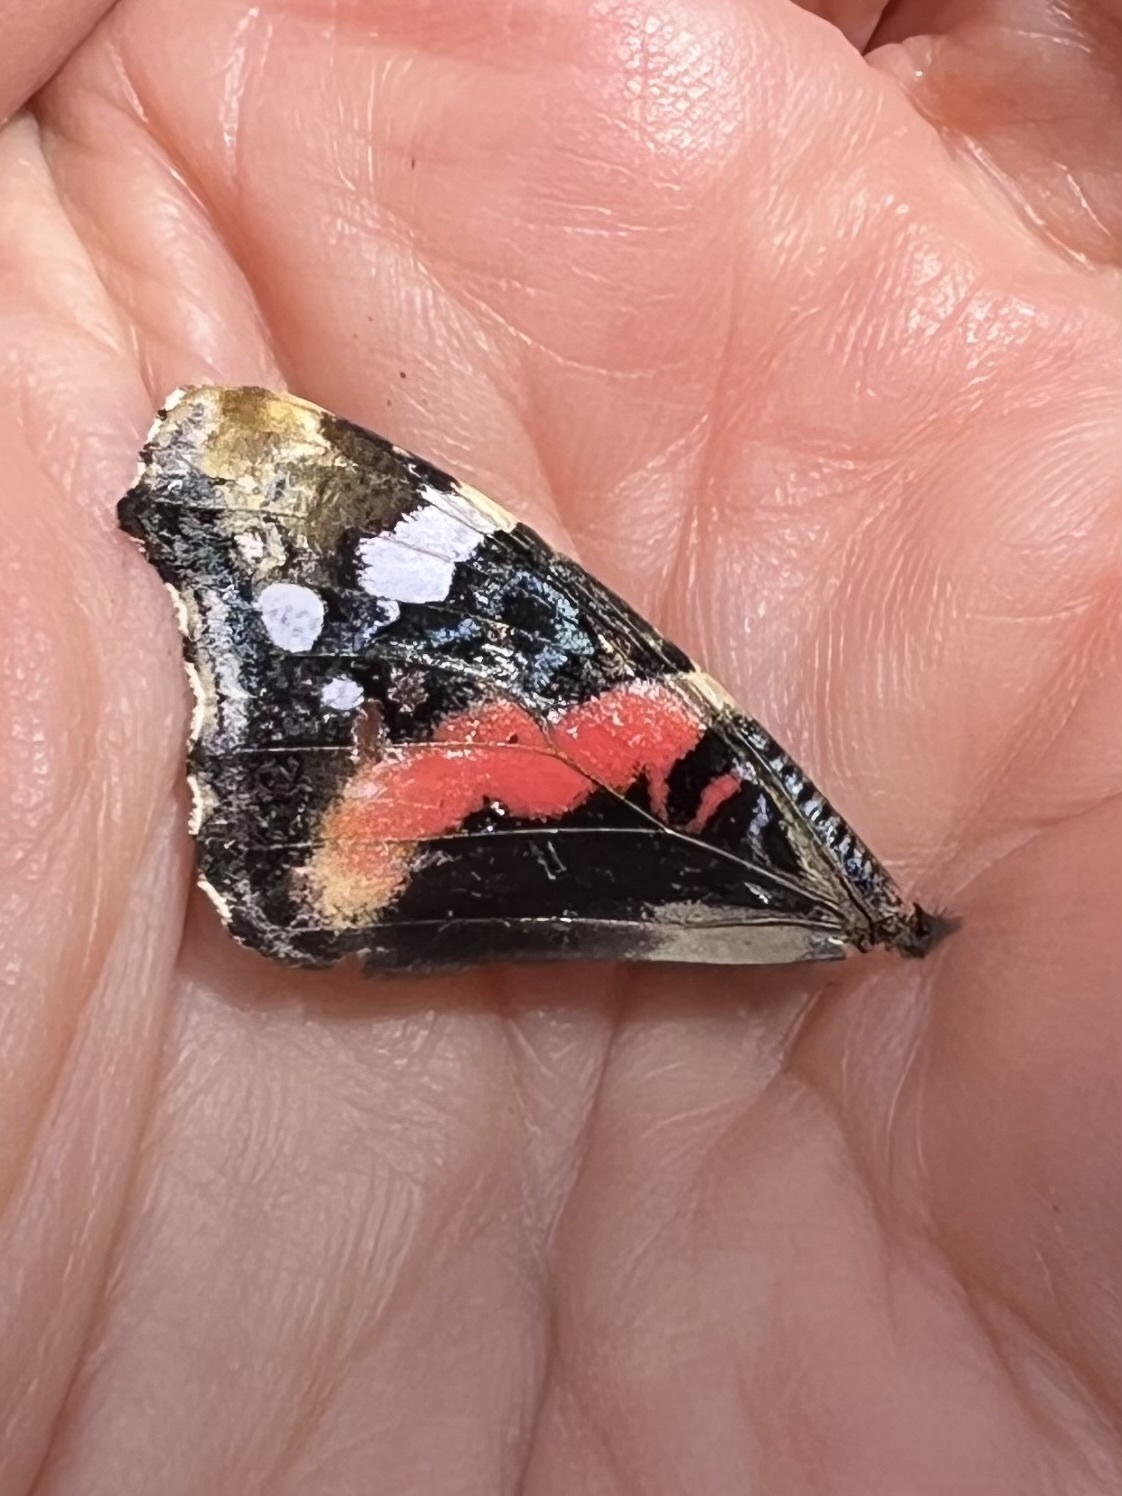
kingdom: Animalia
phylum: Arthropoda
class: Insecta
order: Lepidoptera
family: Nymphalidae
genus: Vanessa
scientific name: Vanessa atalanta
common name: Red admiral
